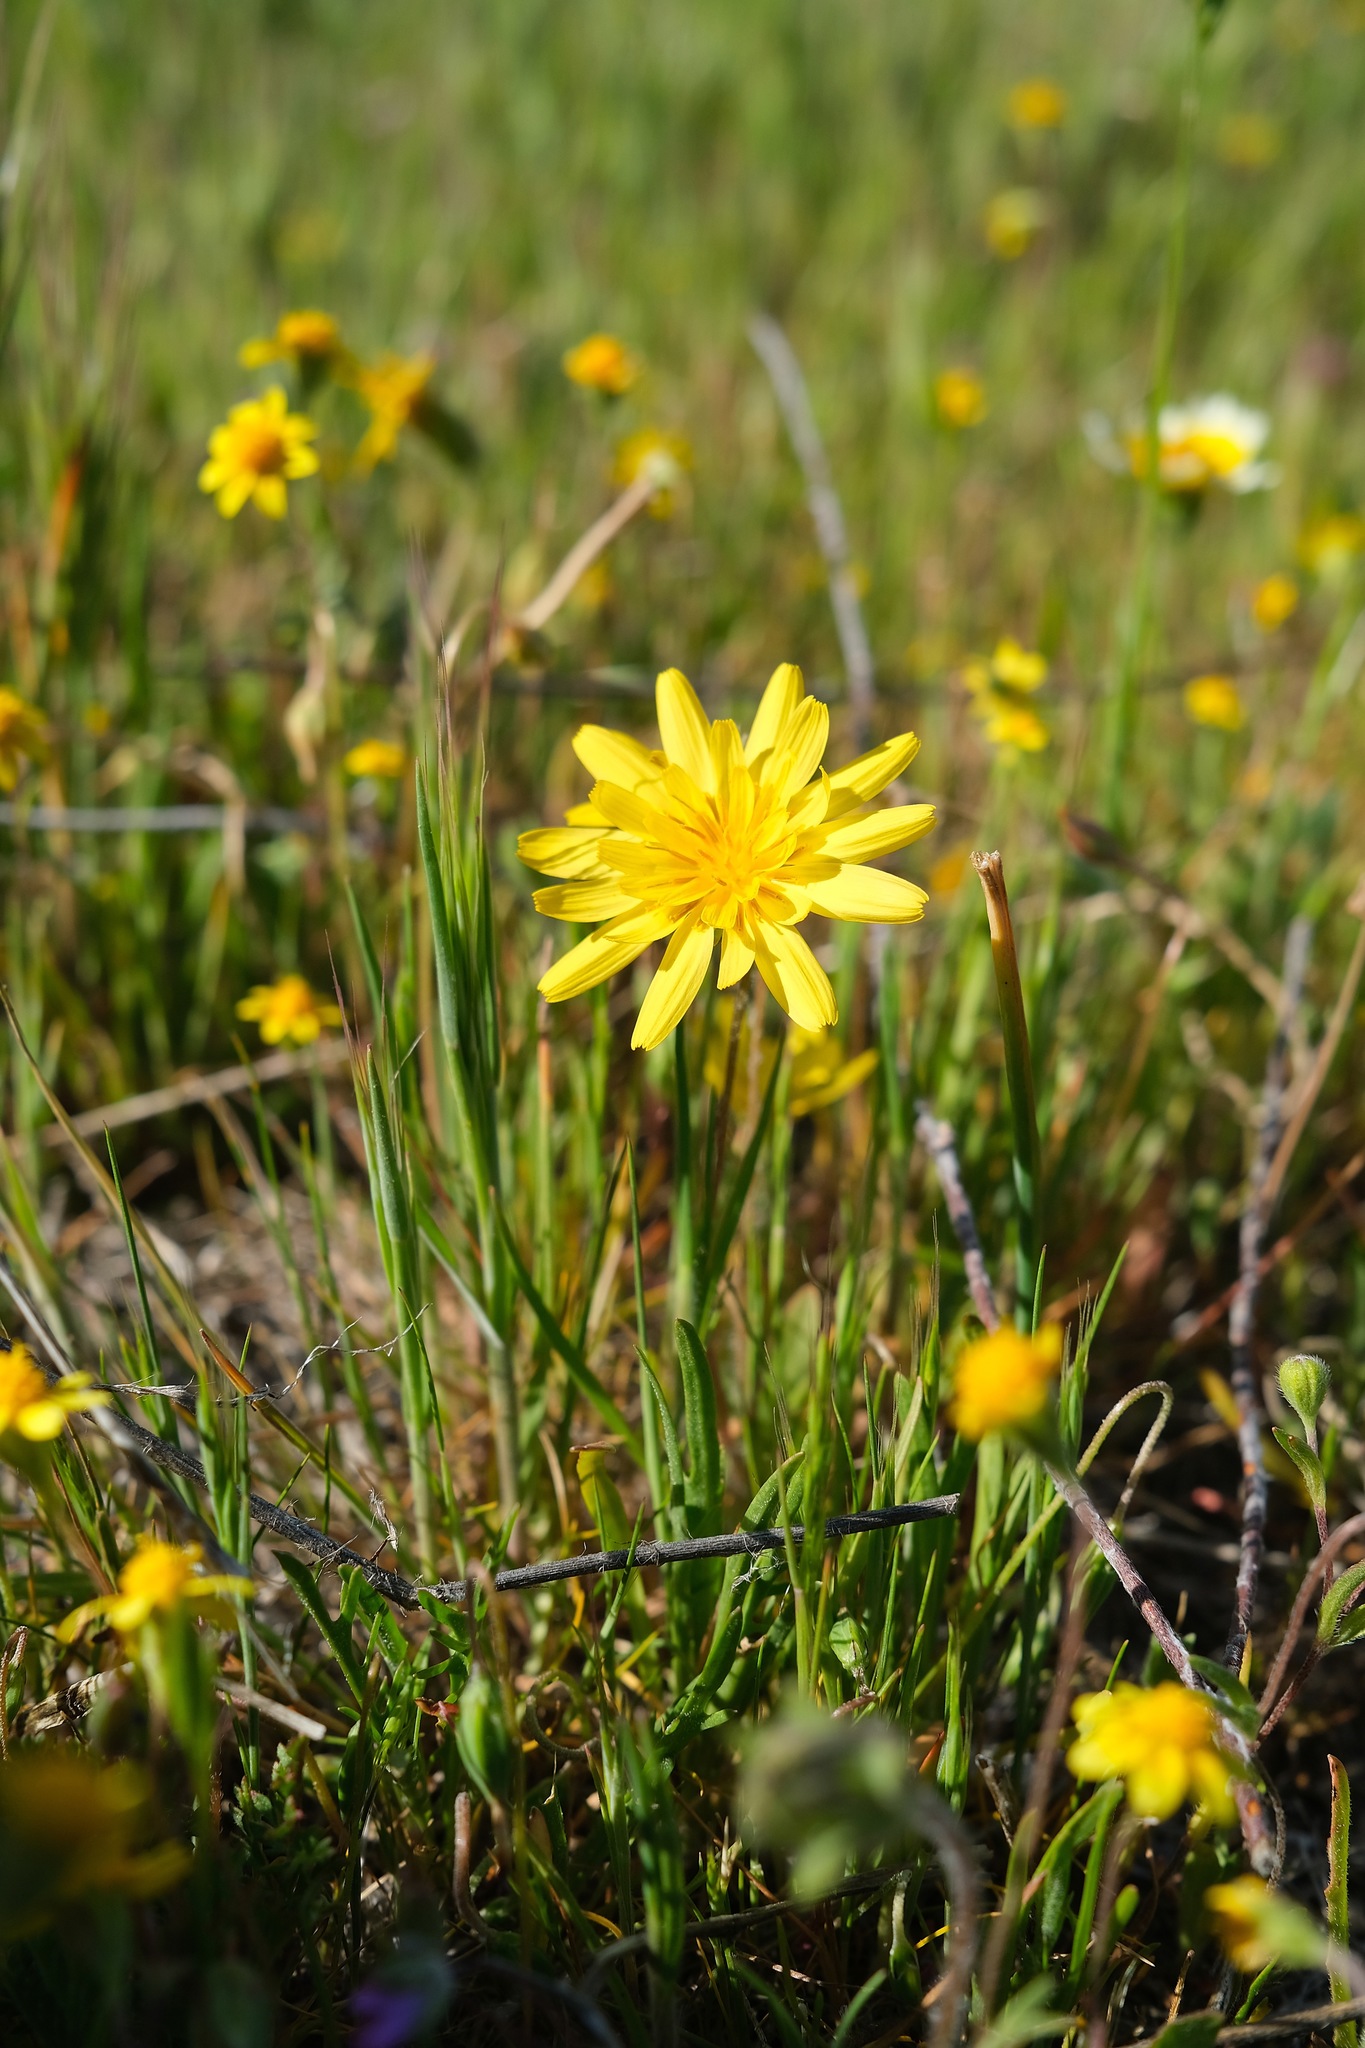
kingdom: Plantae
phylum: Tracheophyta
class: Magnoliopsida
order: Asterales
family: Asteraceae
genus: Agoseris
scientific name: Agoseris heterophylla
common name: Annual agoseris
